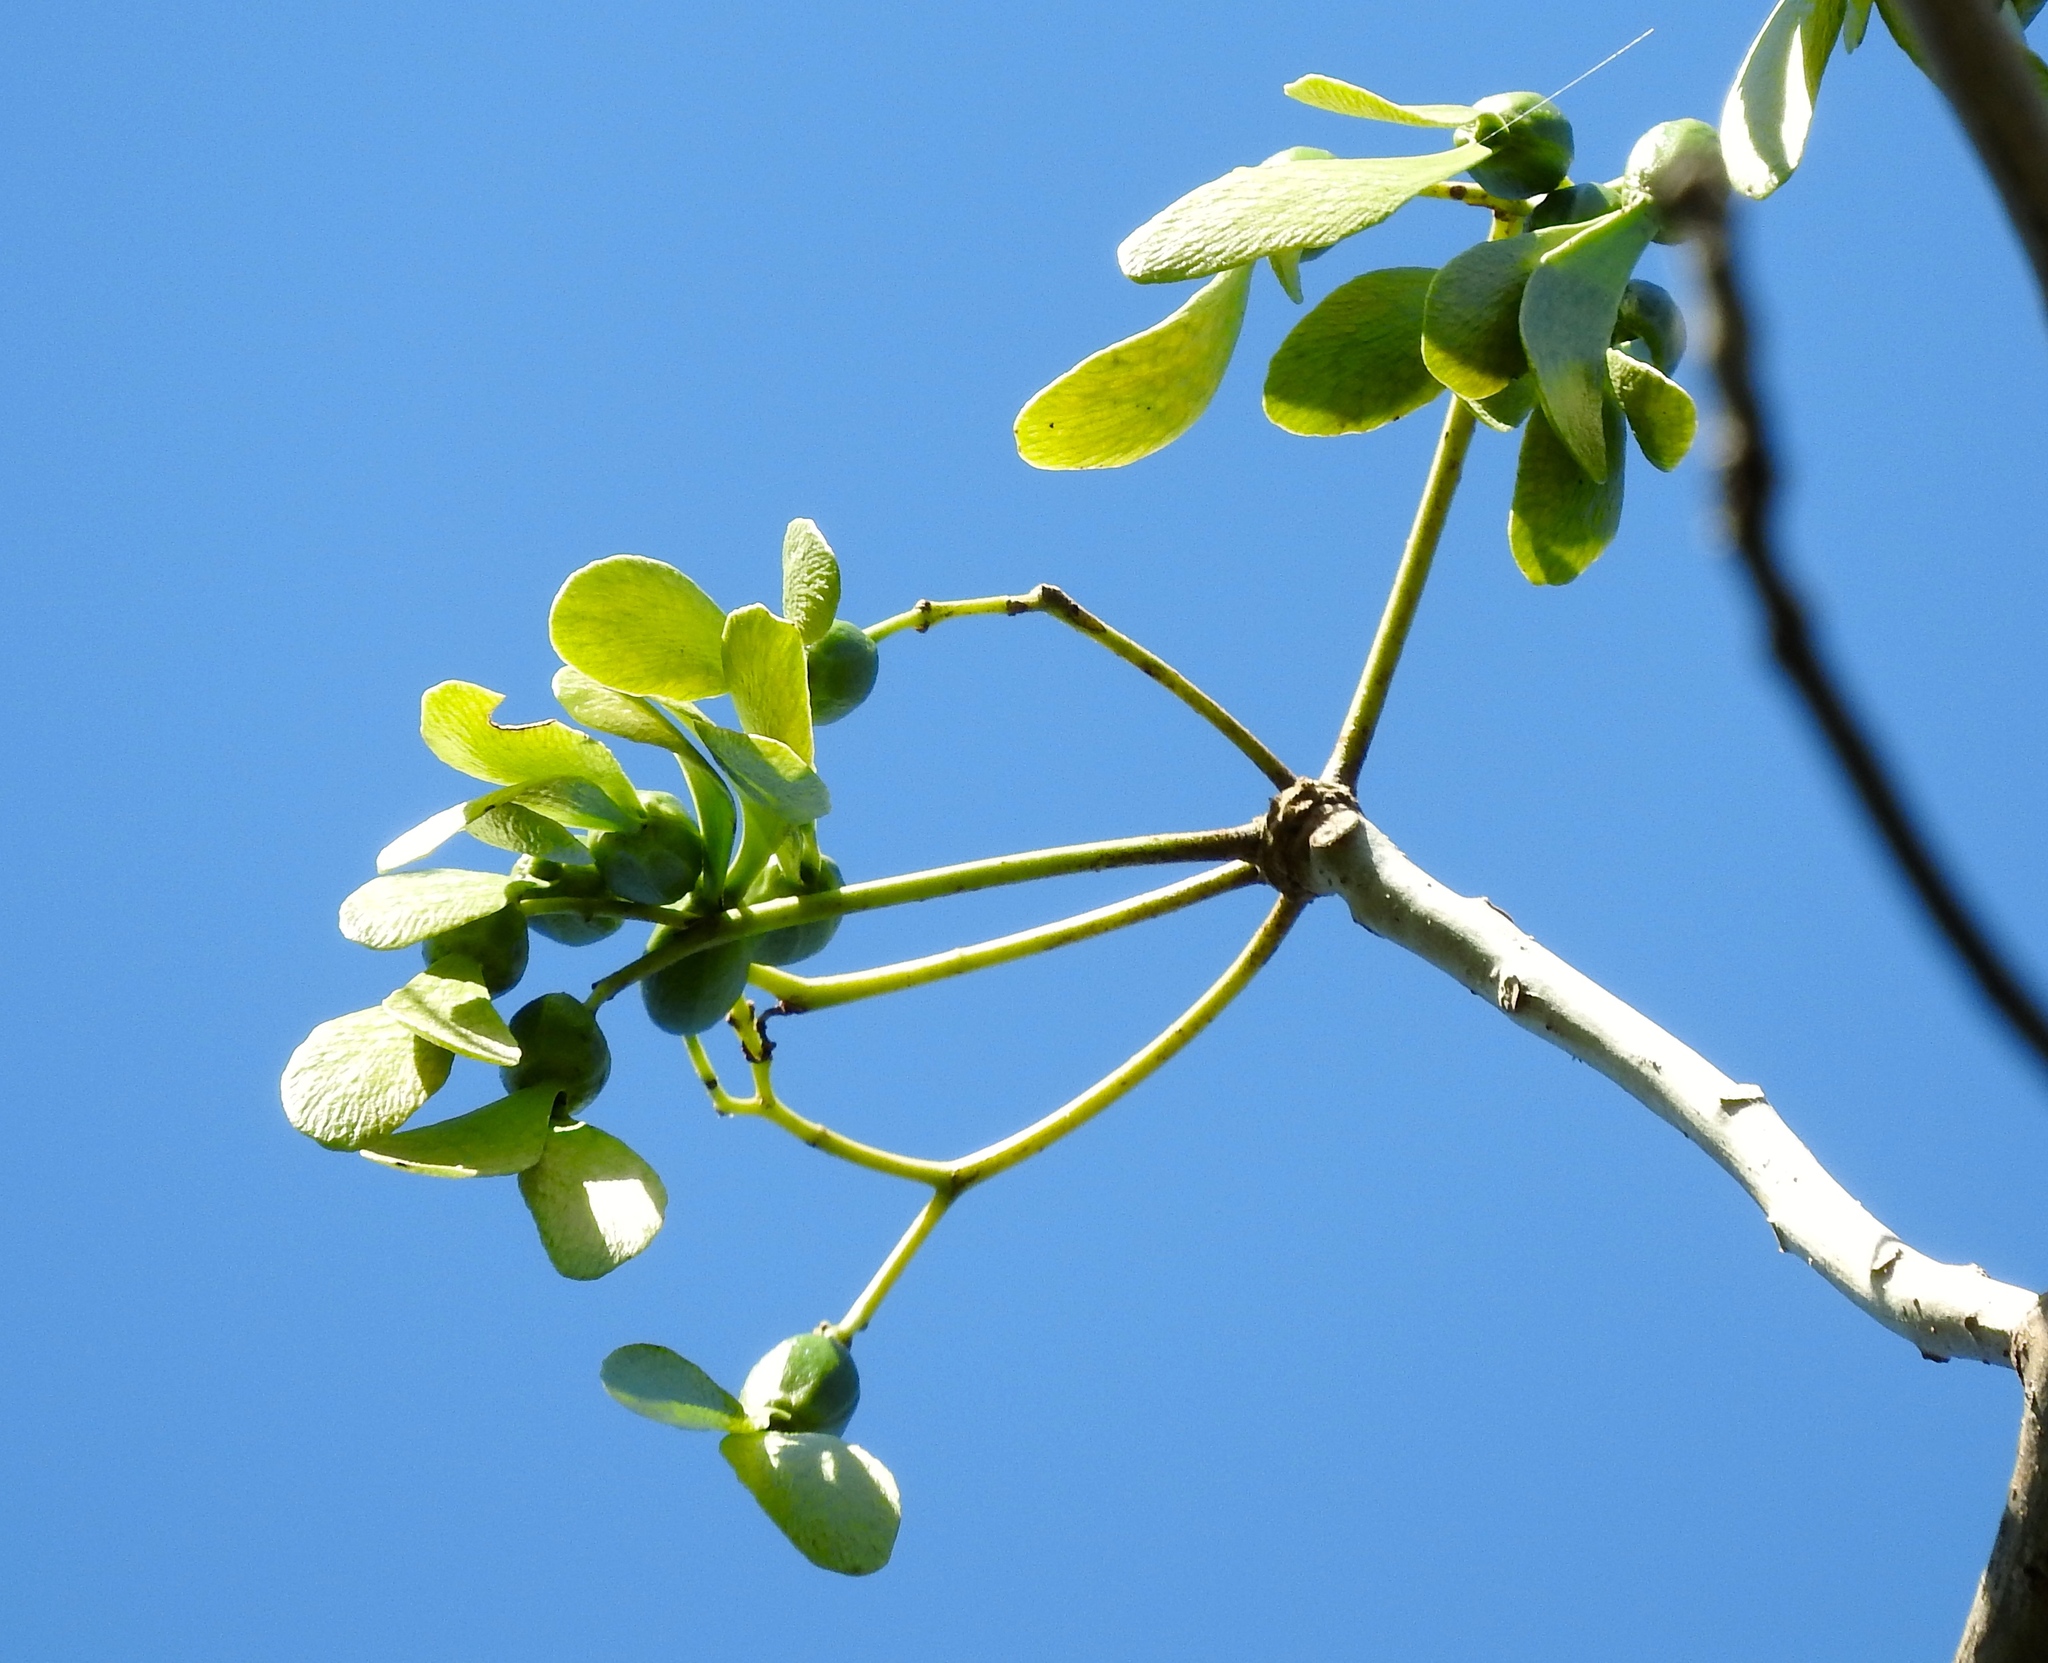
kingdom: Plantae
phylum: Tracheophyta
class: Magnoliopsida
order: Laurales
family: Hernandiaceae
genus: Gyrocarpus
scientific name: Gyrocarpus
